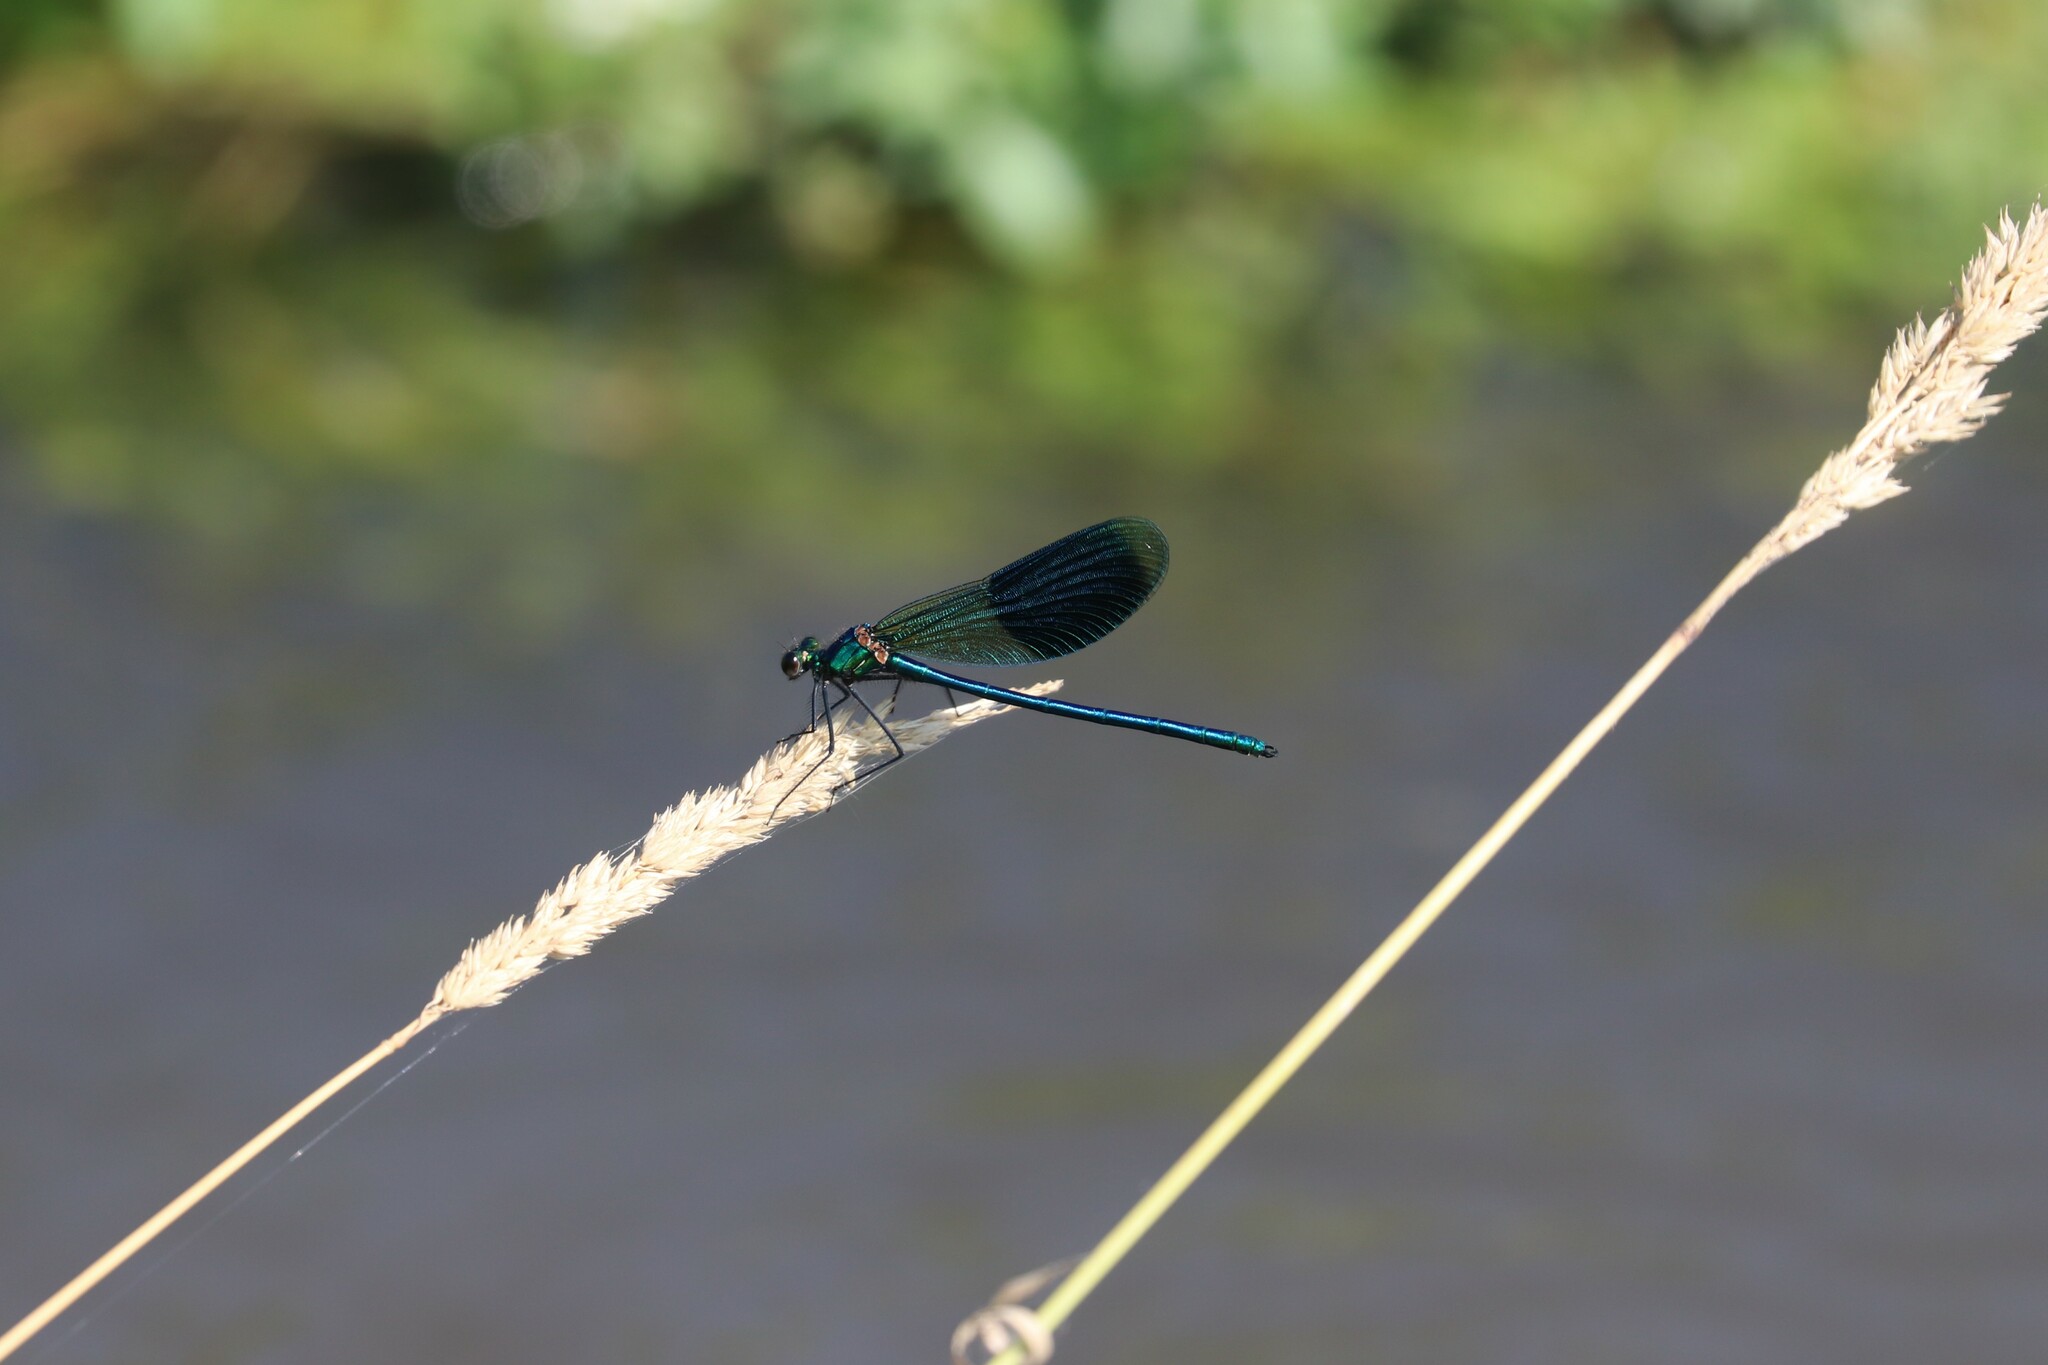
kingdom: Animalia
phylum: Arthropoda
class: Insecta
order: Odonata
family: Calopterygidae
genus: Calopteryx
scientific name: Calopteryx splendens
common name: Banded demoiselle
